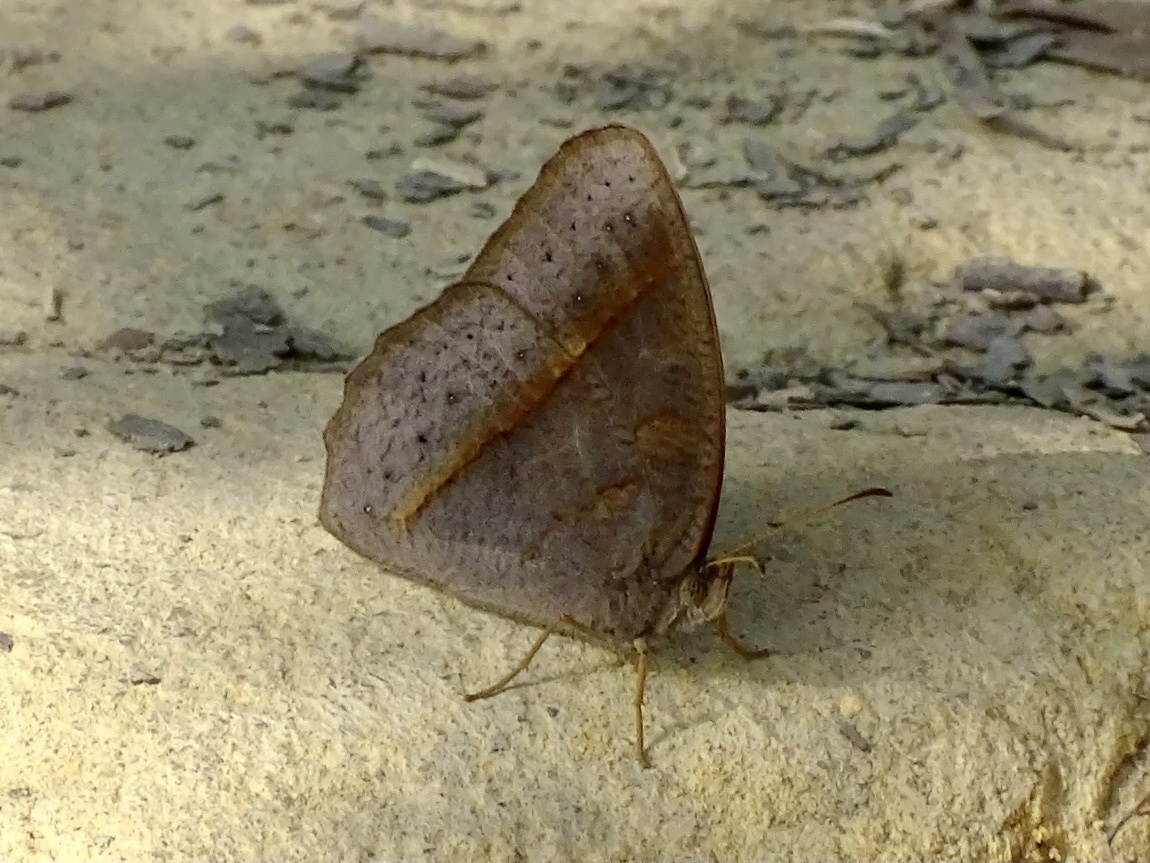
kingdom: Animalia
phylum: Arthropoda
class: Insecta
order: Lepidoptera
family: Nymphalidae
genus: Mycalesis
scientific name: Mycalesis mineus
